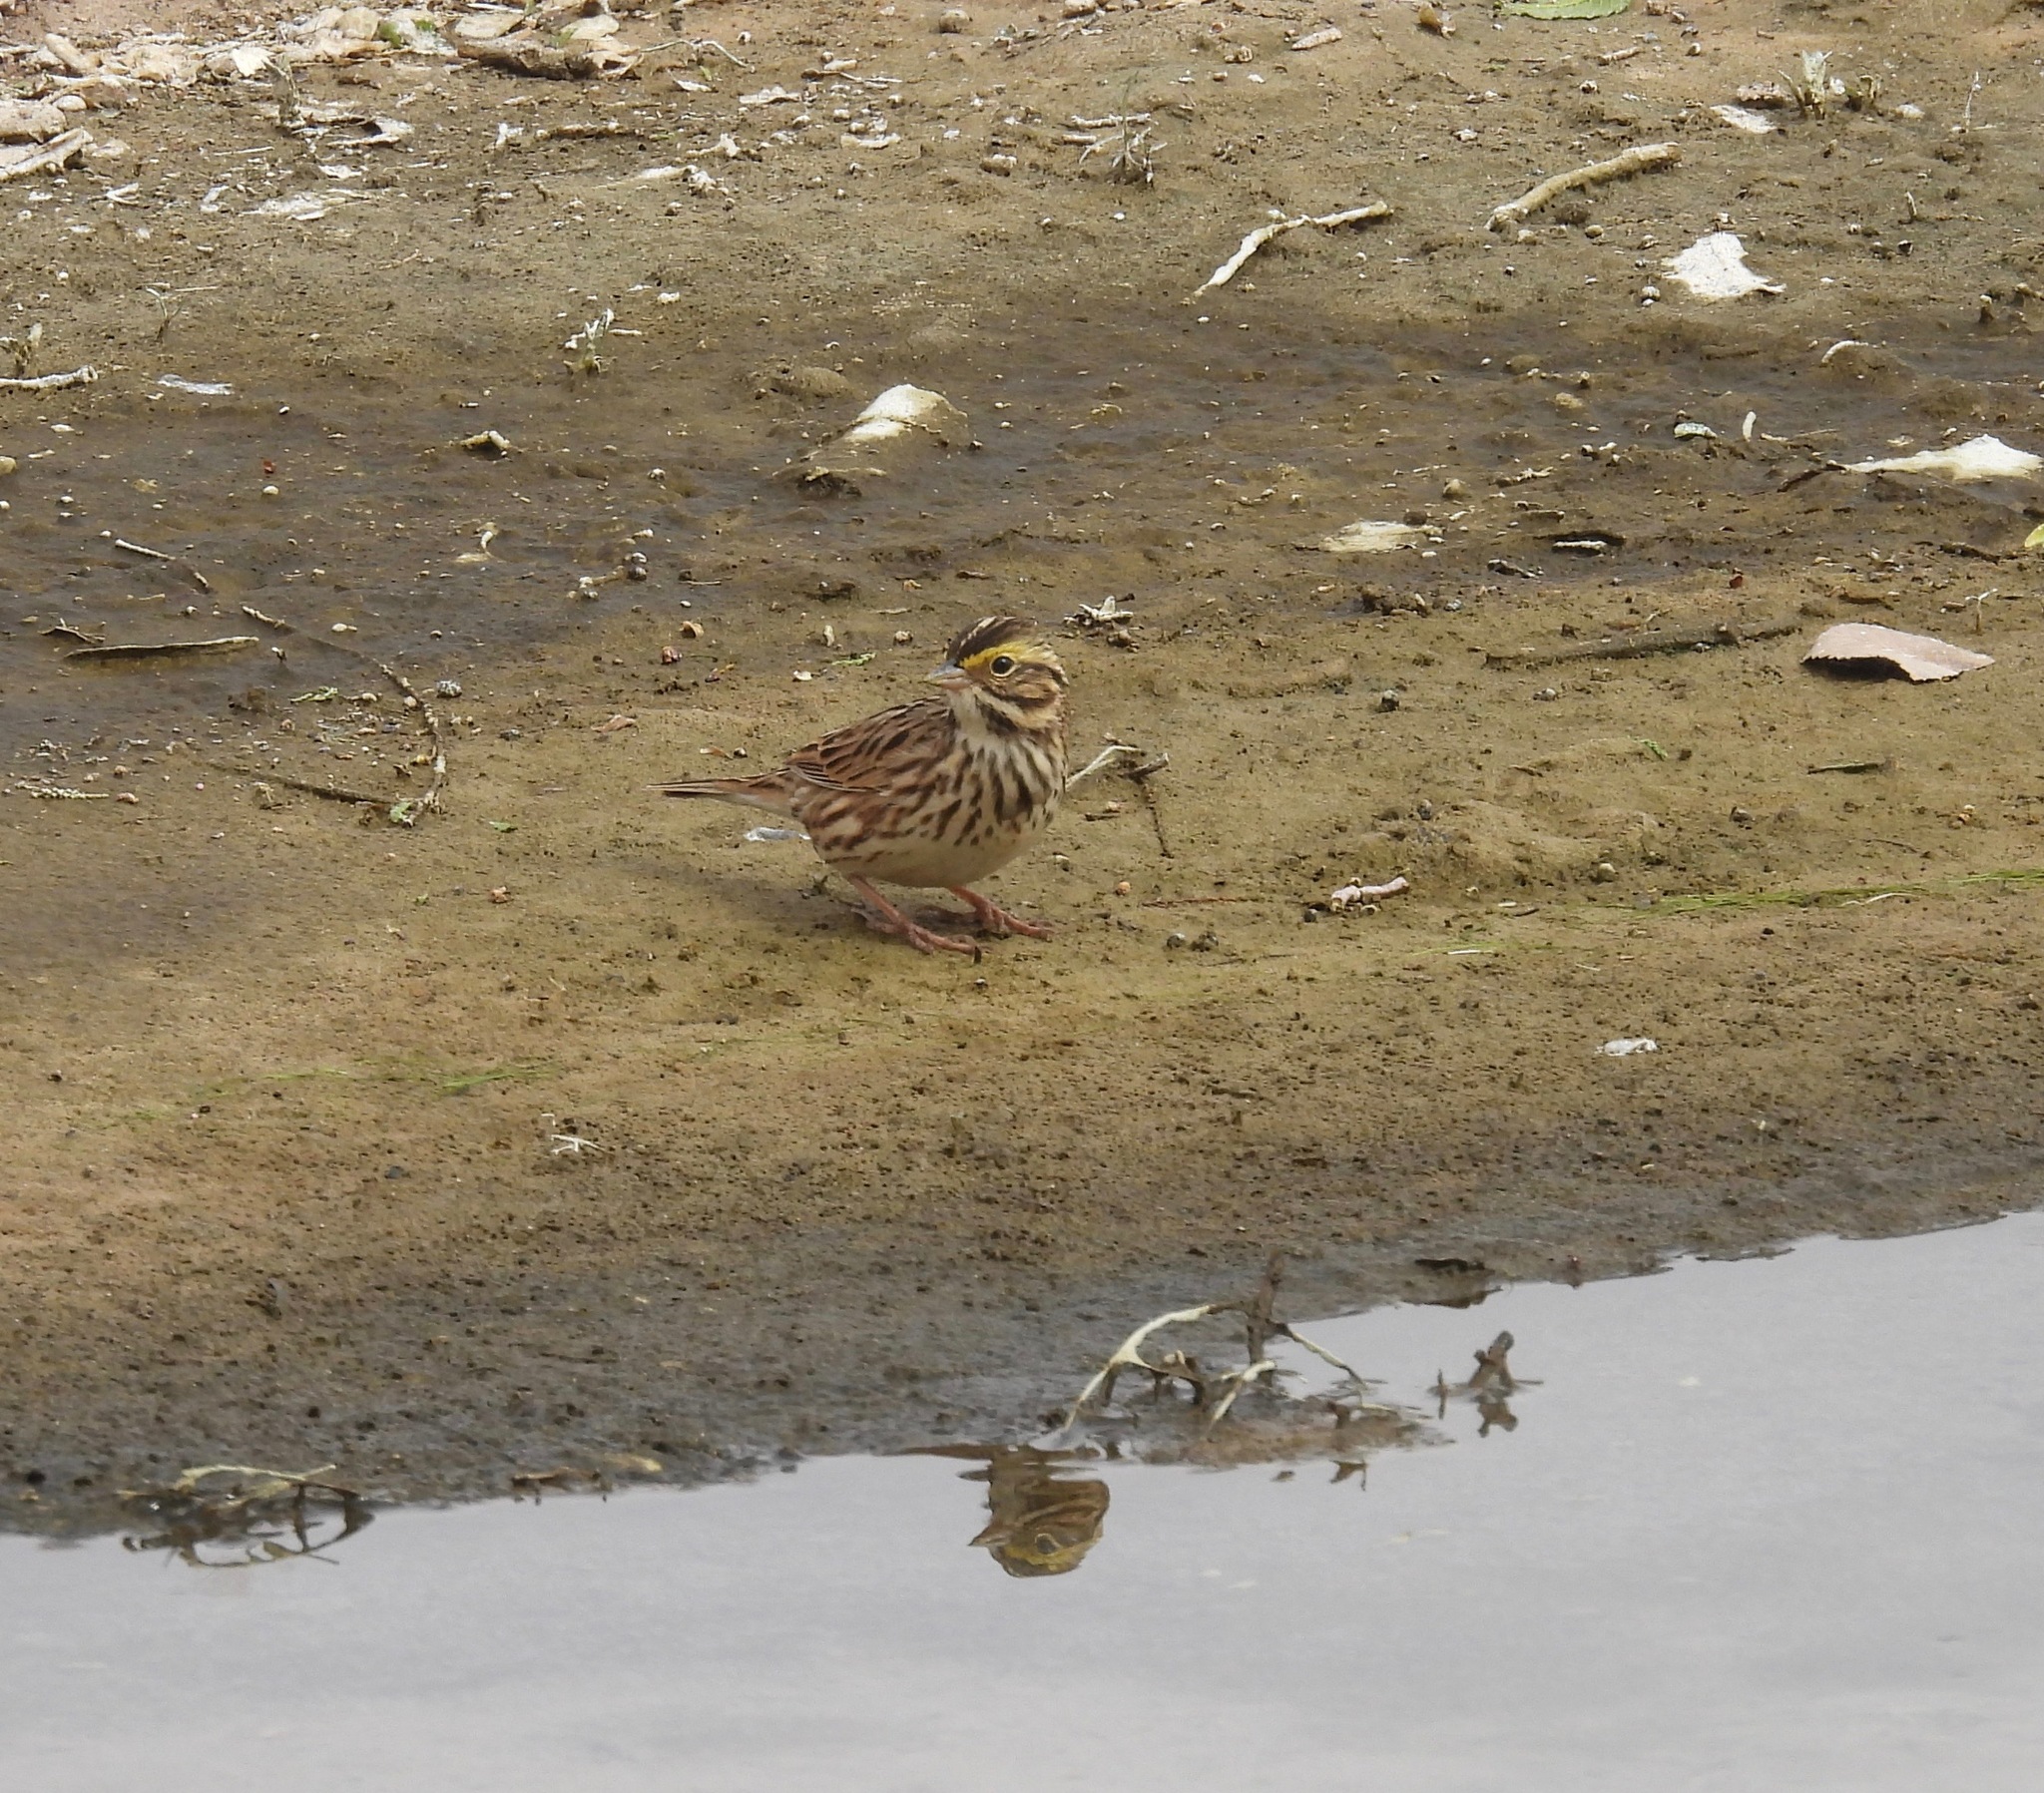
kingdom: Animalia
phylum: Chordata
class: Aves
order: Passeriformes
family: Passerellidae
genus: Passerculus
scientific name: Passerculus sandwichensis
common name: Savannah sparrow
